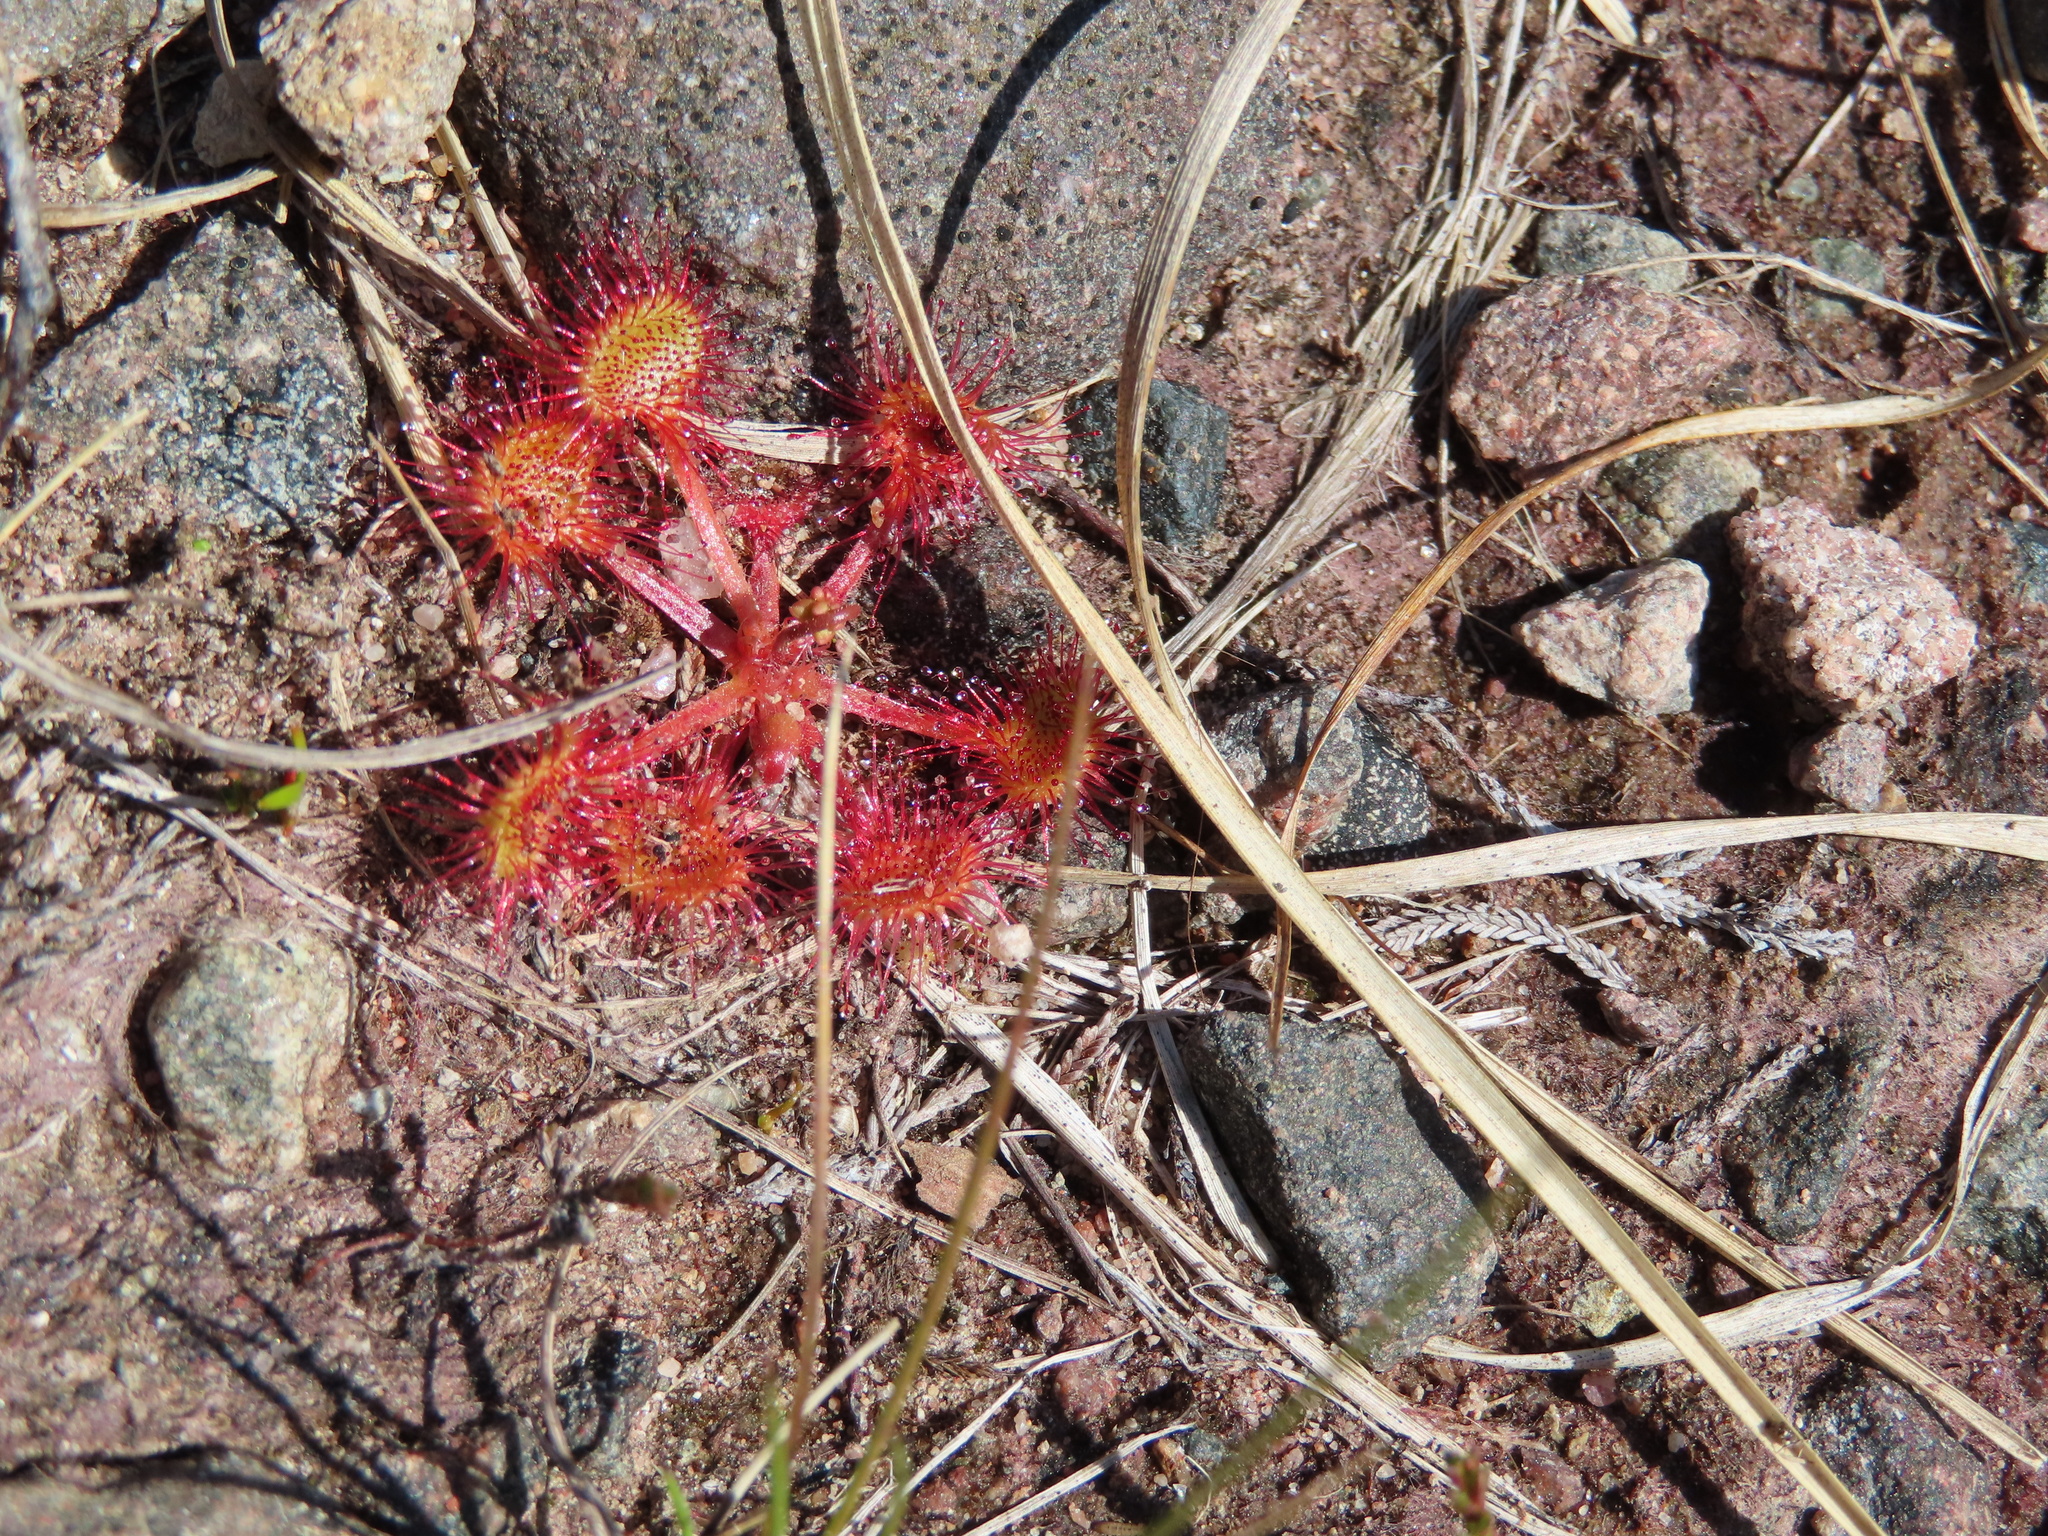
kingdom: Plantae
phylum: Tracheophyta
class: Magnoliopsida
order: Caryophyllales
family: Droseraceae
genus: Drosera
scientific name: Drosera rotundifolia
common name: Round-leaved sundew
